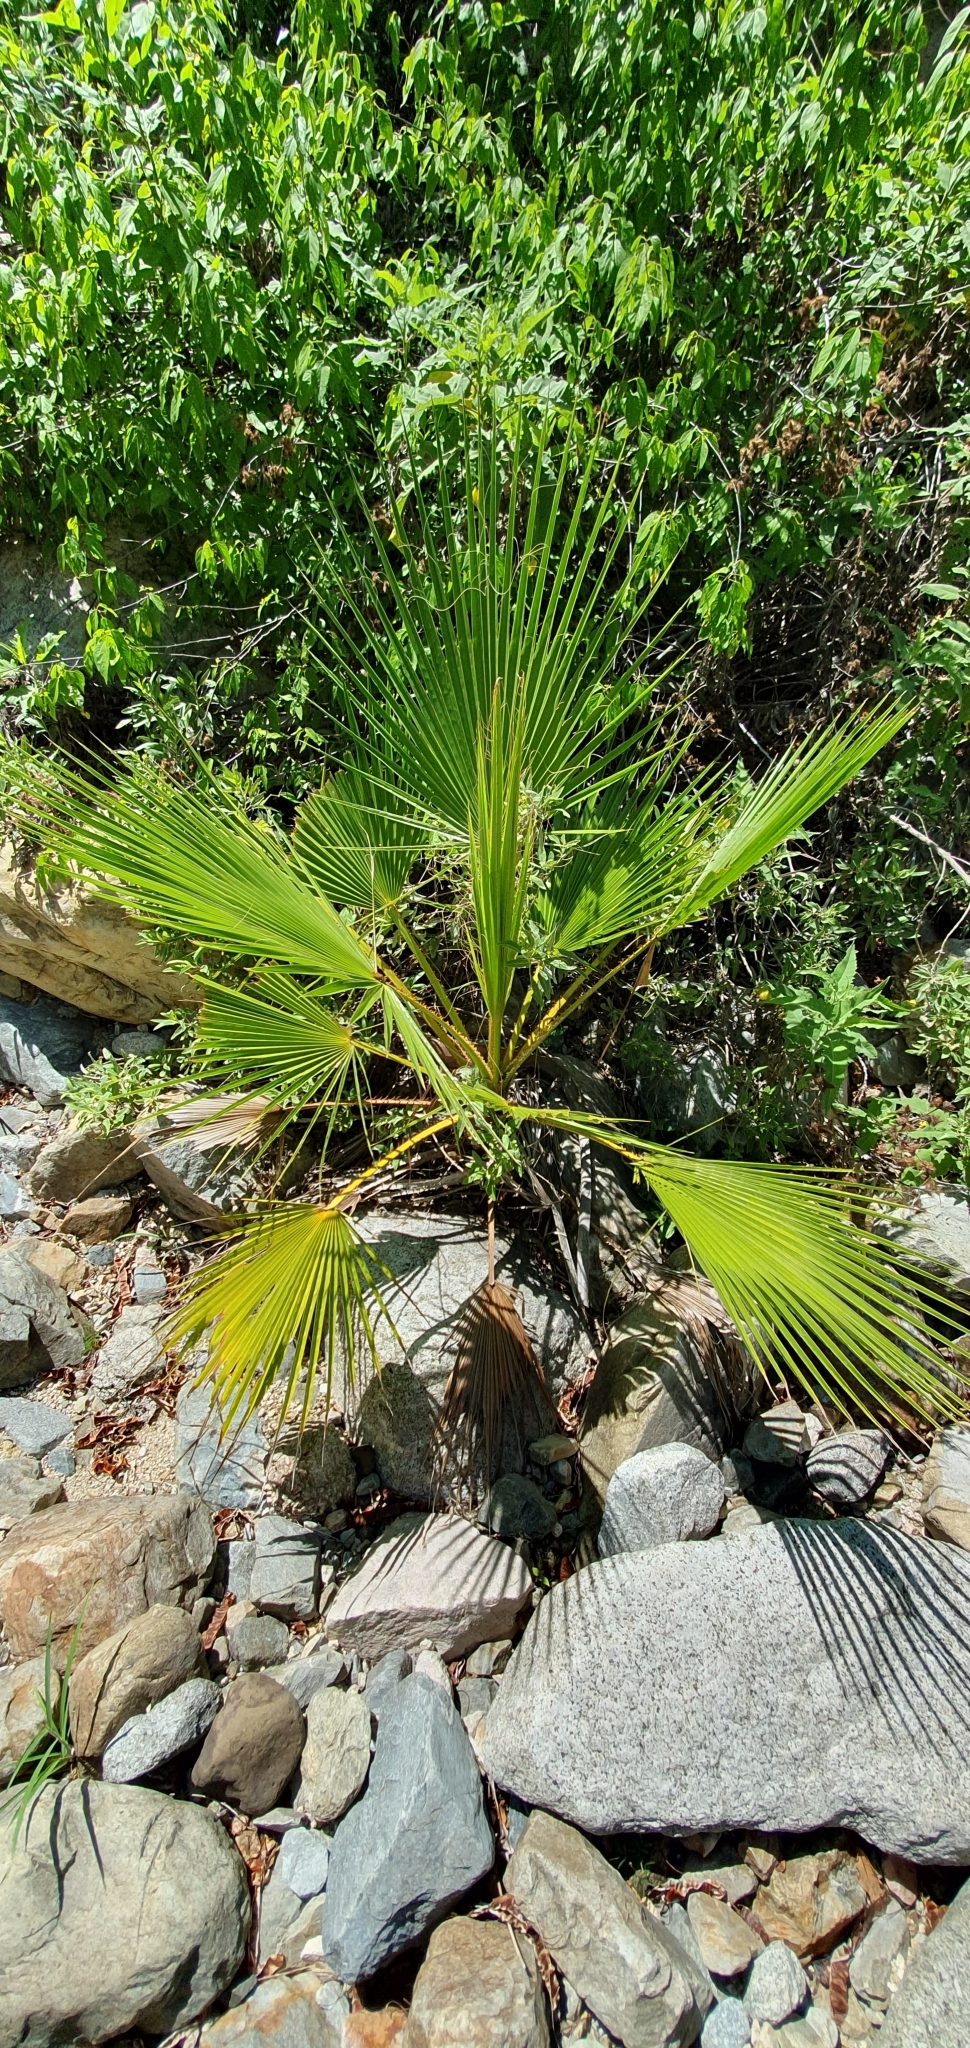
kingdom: Plantae
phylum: Tracheophyta
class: Liliopsida
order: Arecales
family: Arecaceae
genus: Washingtonia
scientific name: Washingtonia robusta
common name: Mexican fan palm
